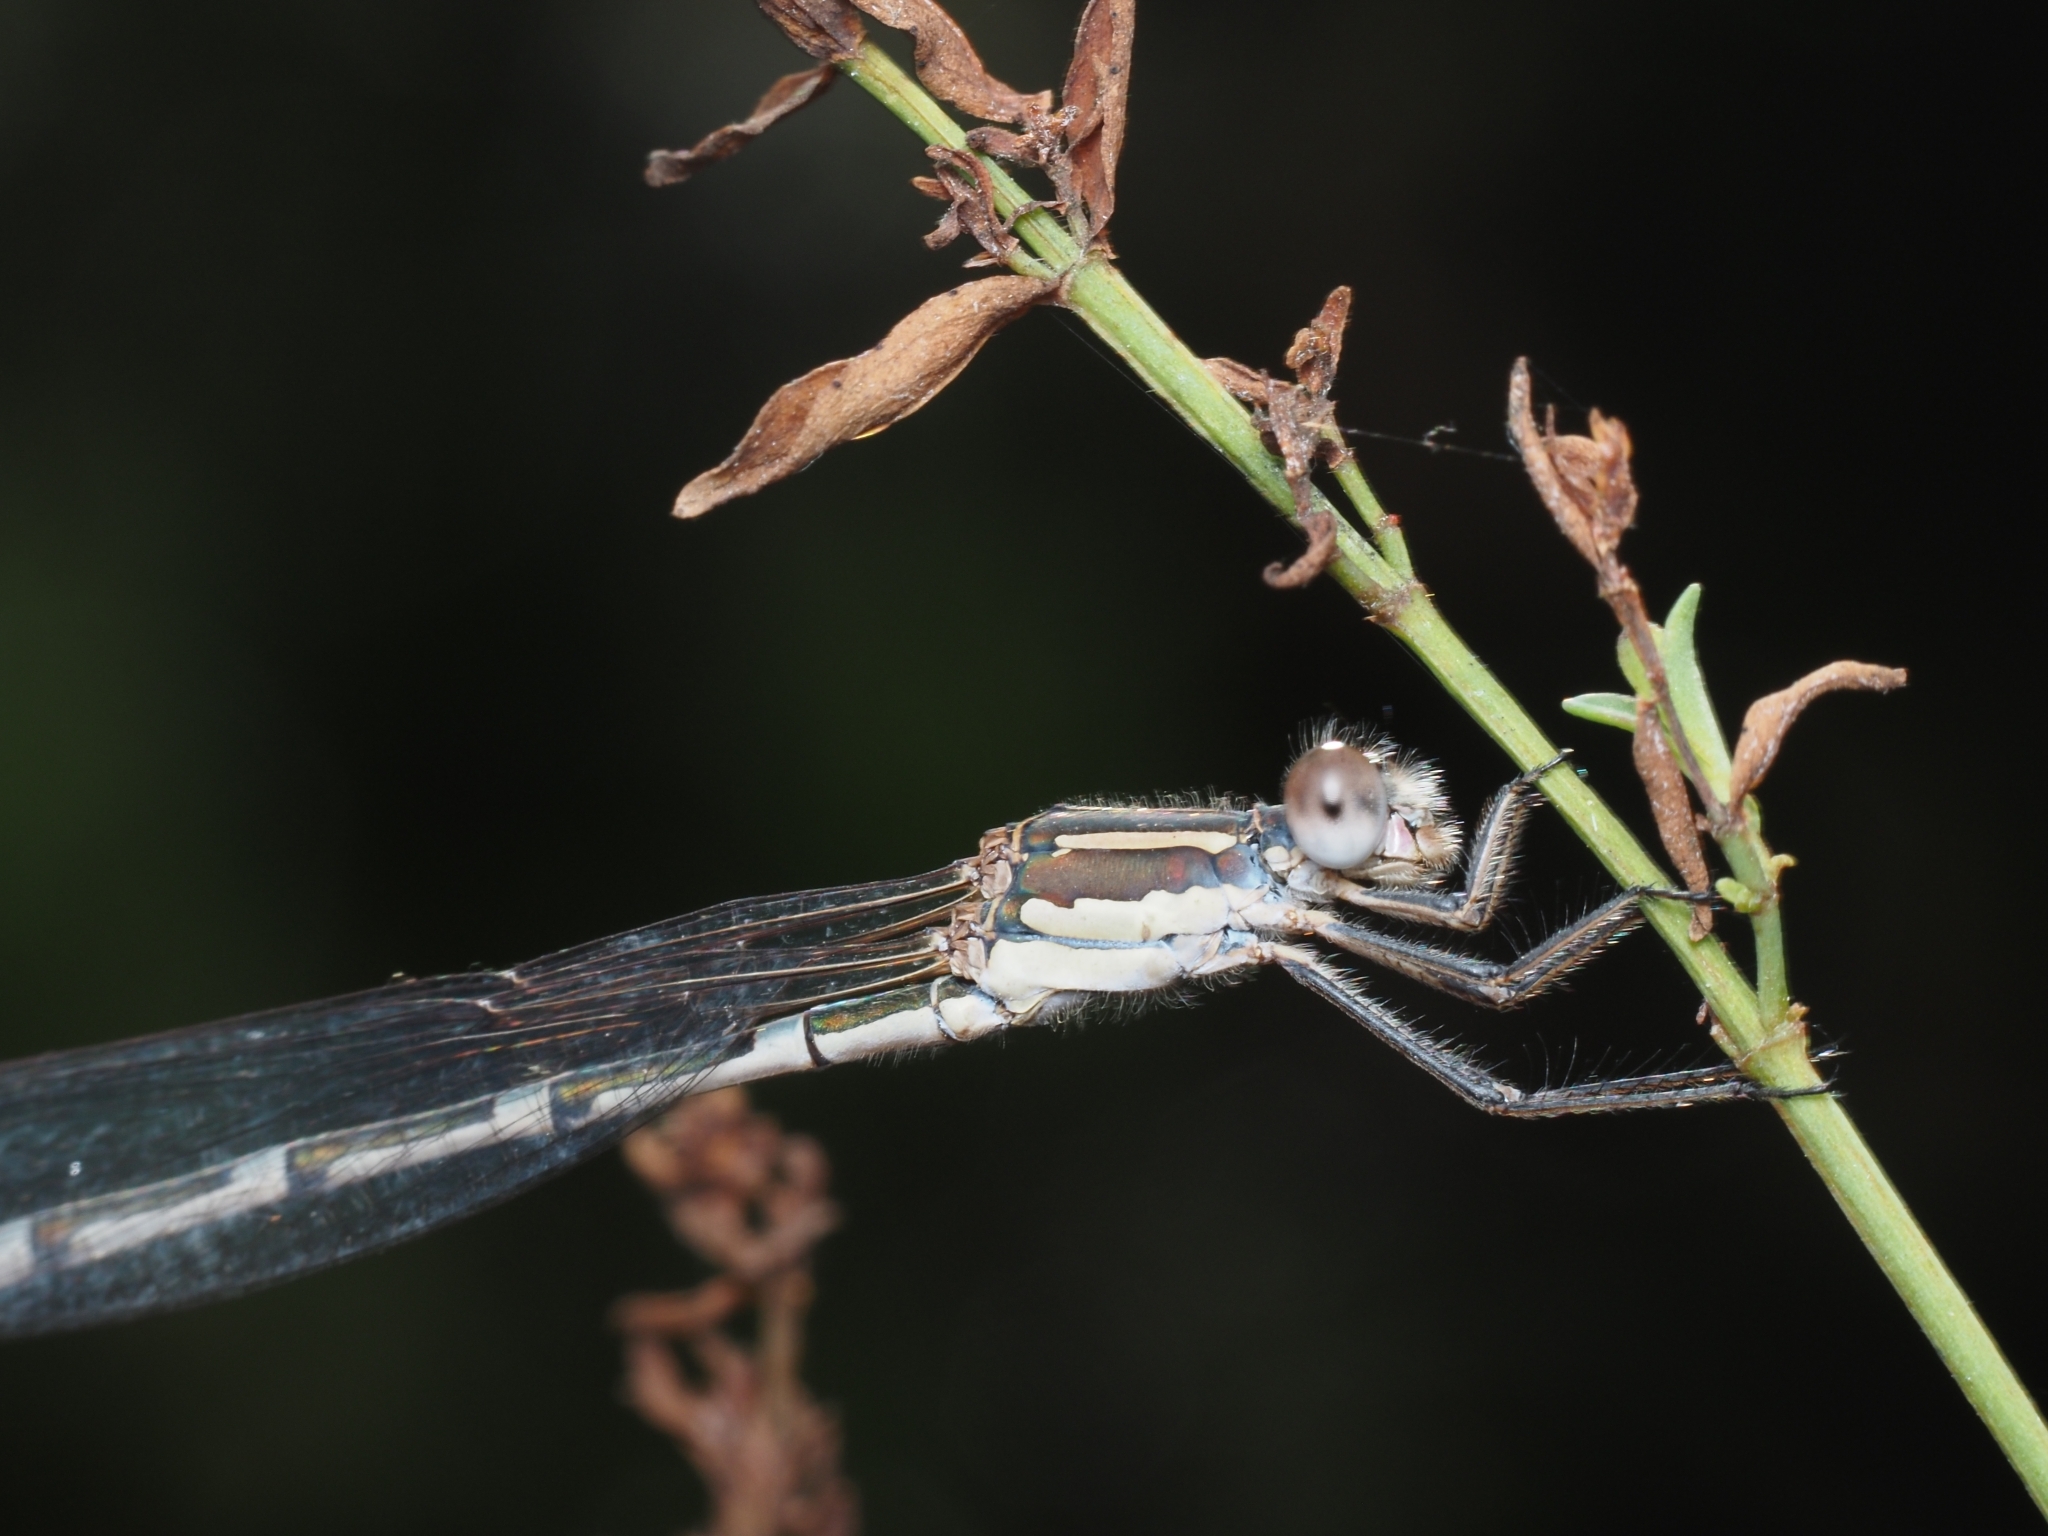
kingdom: Animalia
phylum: Arthropoda
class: Insecta
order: Odonata
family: Lestidae
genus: Austrolestes
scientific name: Austrolestes leda
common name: Wandering ringtail
